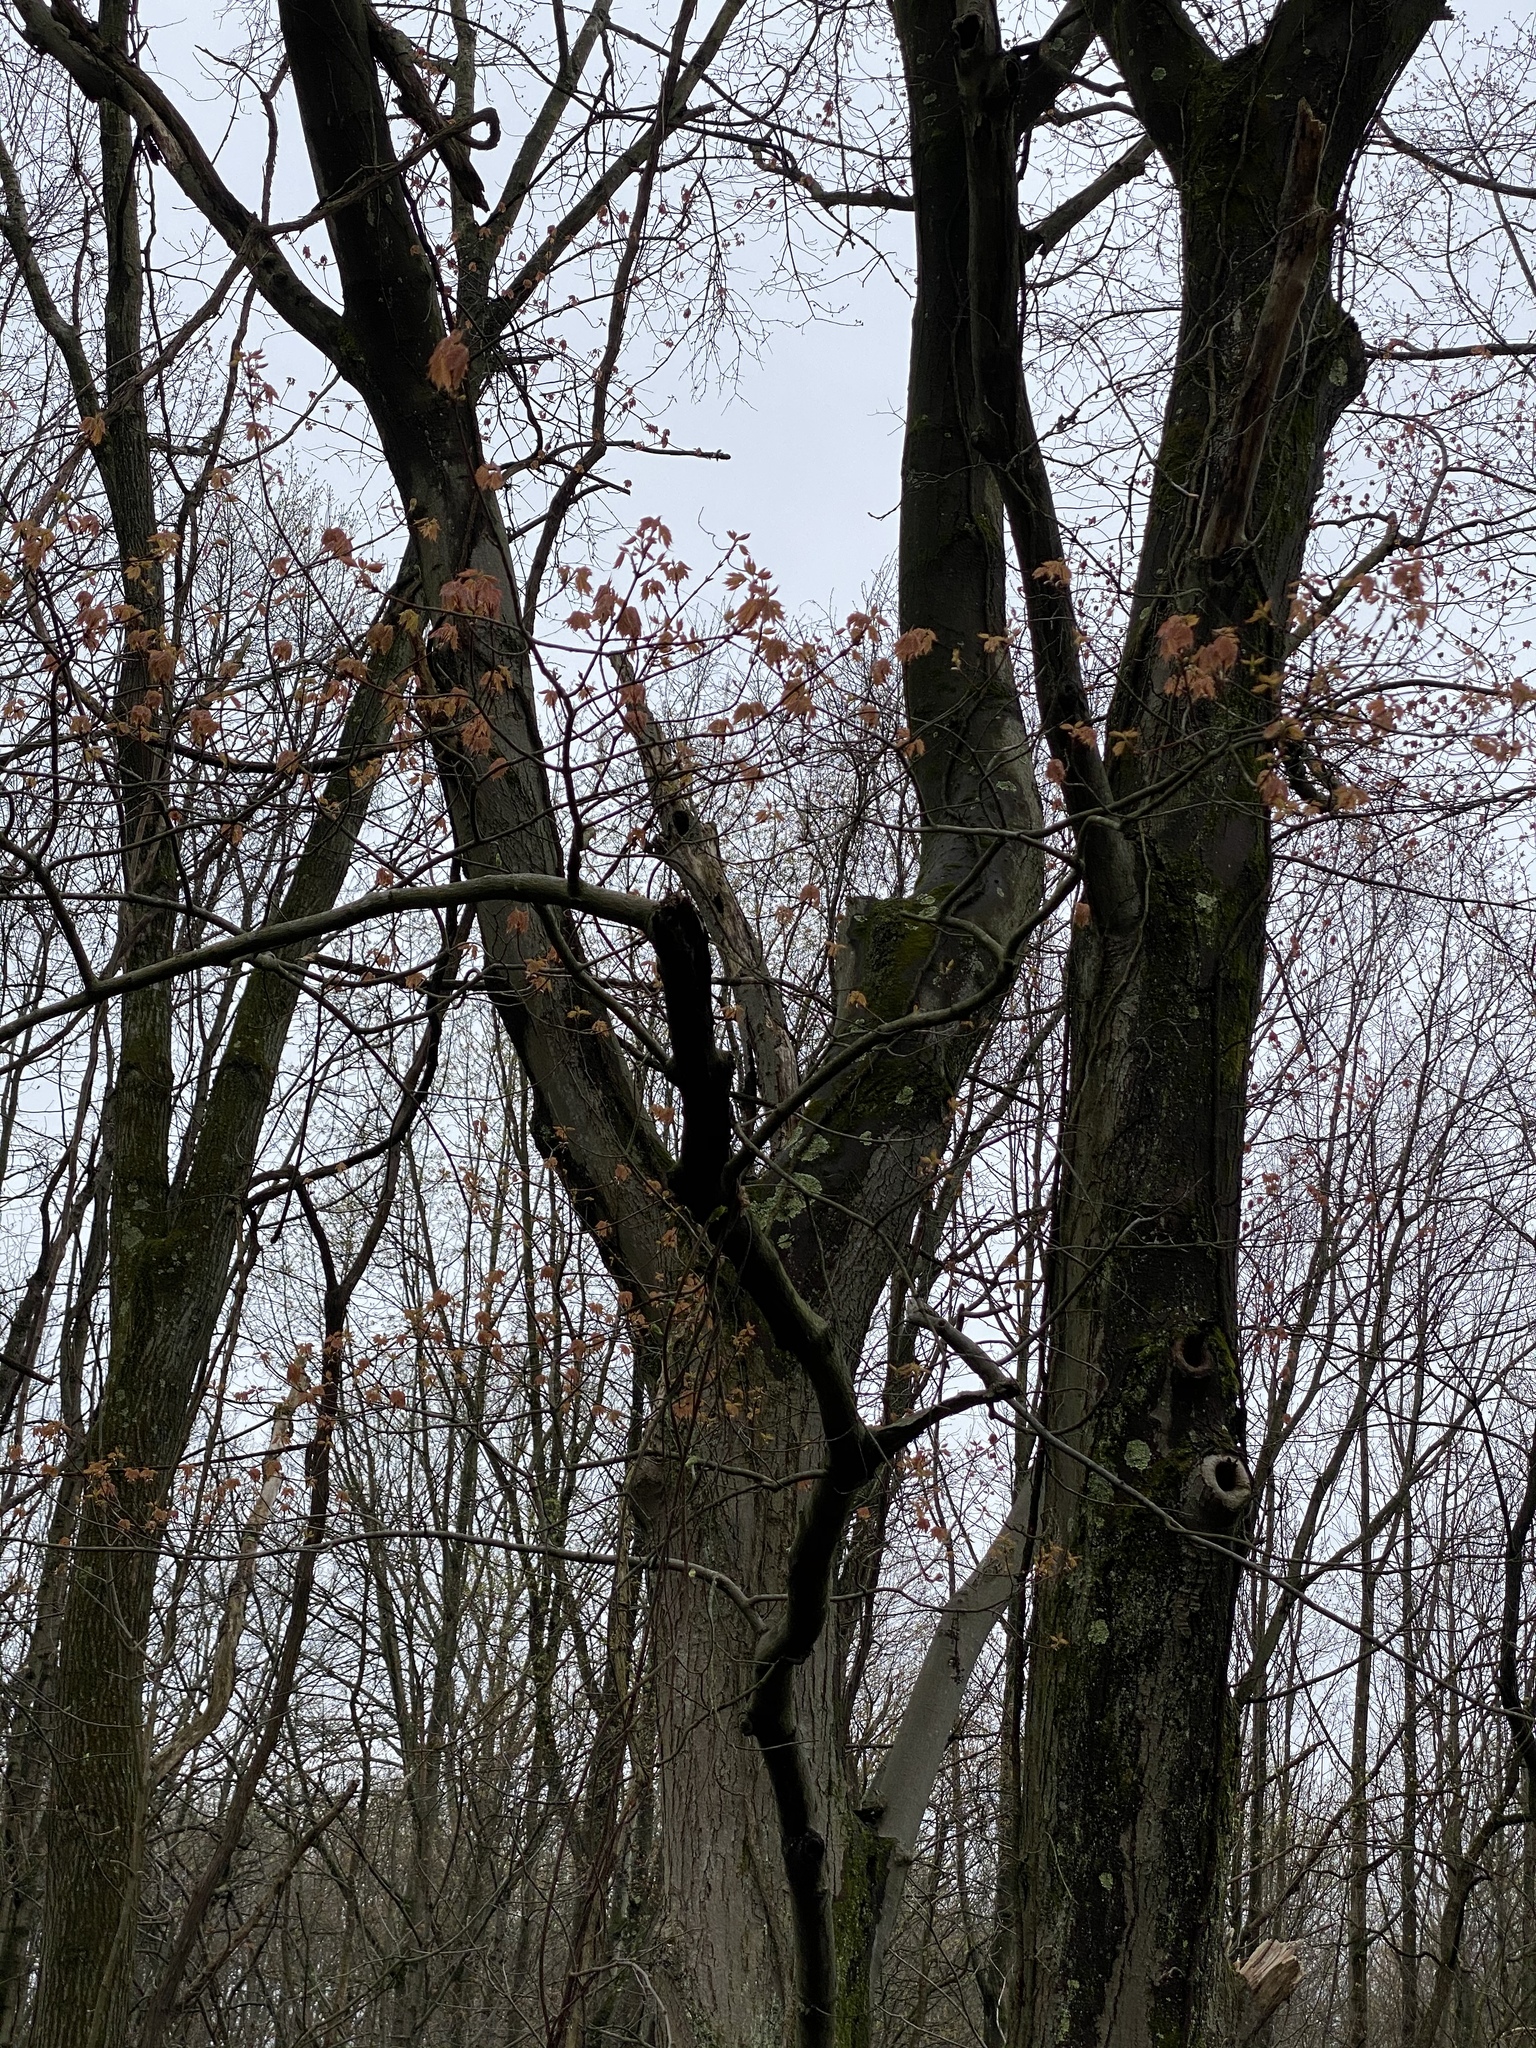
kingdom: Plantae
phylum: Tracheophyta
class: Magnoliopsida
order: Sapindales
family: Sapindaceae
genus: Acer
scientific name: Acer rubrum
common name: Red maple
